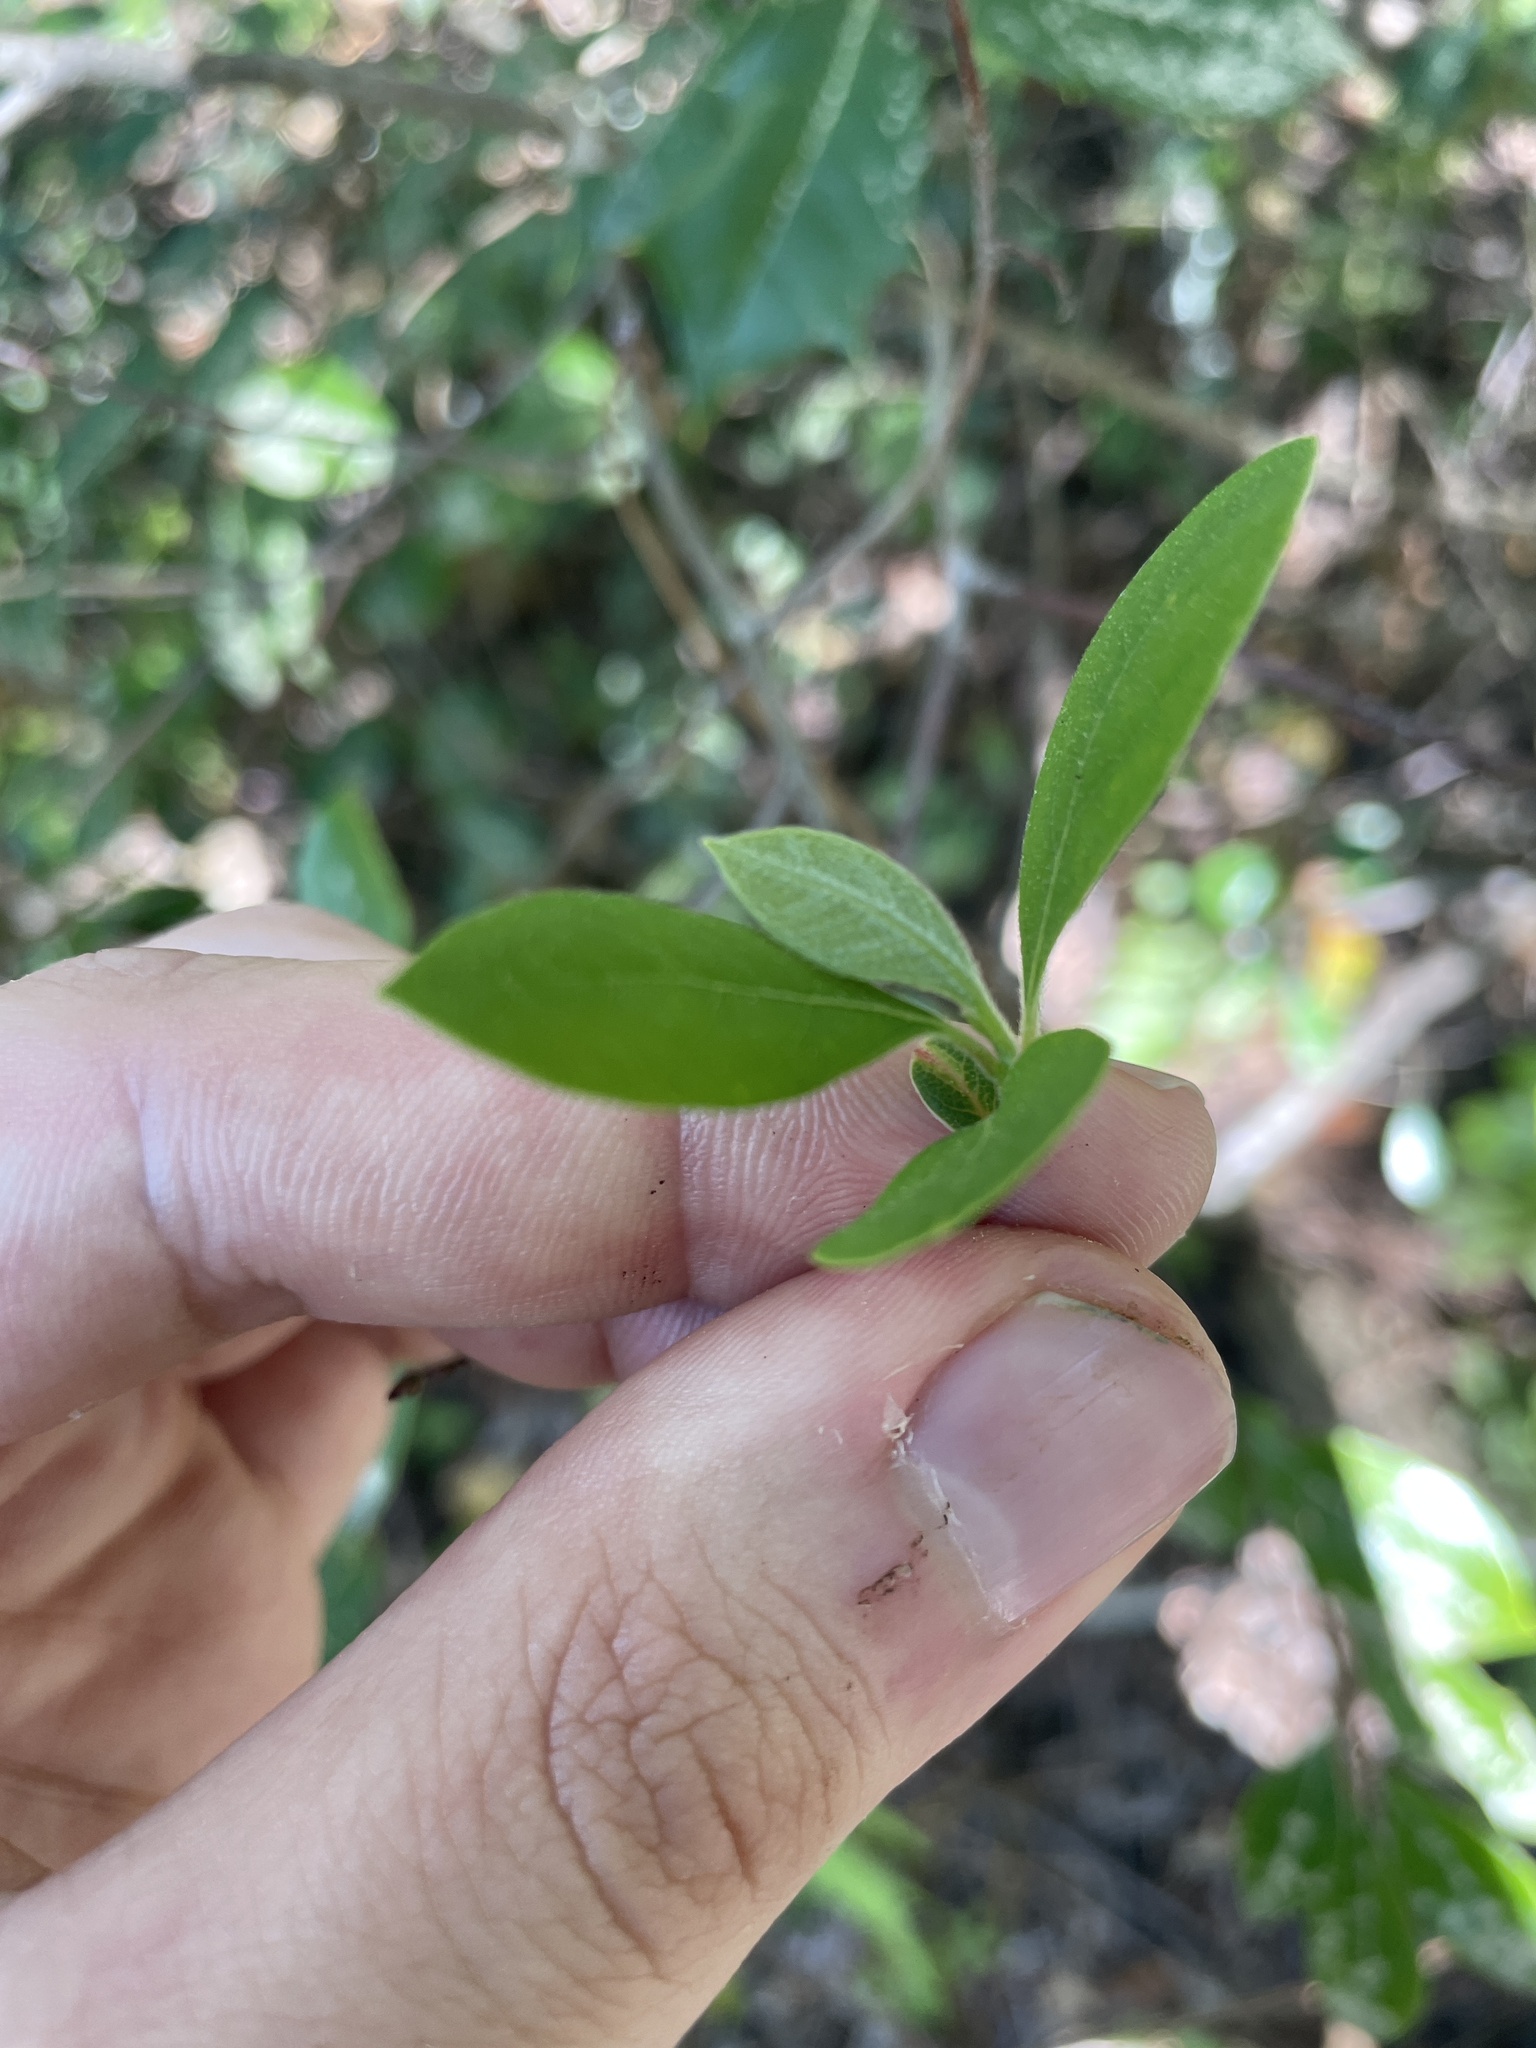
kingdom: Plantae
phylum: Tracheophyta
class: Magnoliopsida
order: Laurales
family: Lauraceae
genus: Lindera
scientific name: Lindera subcoriacea
